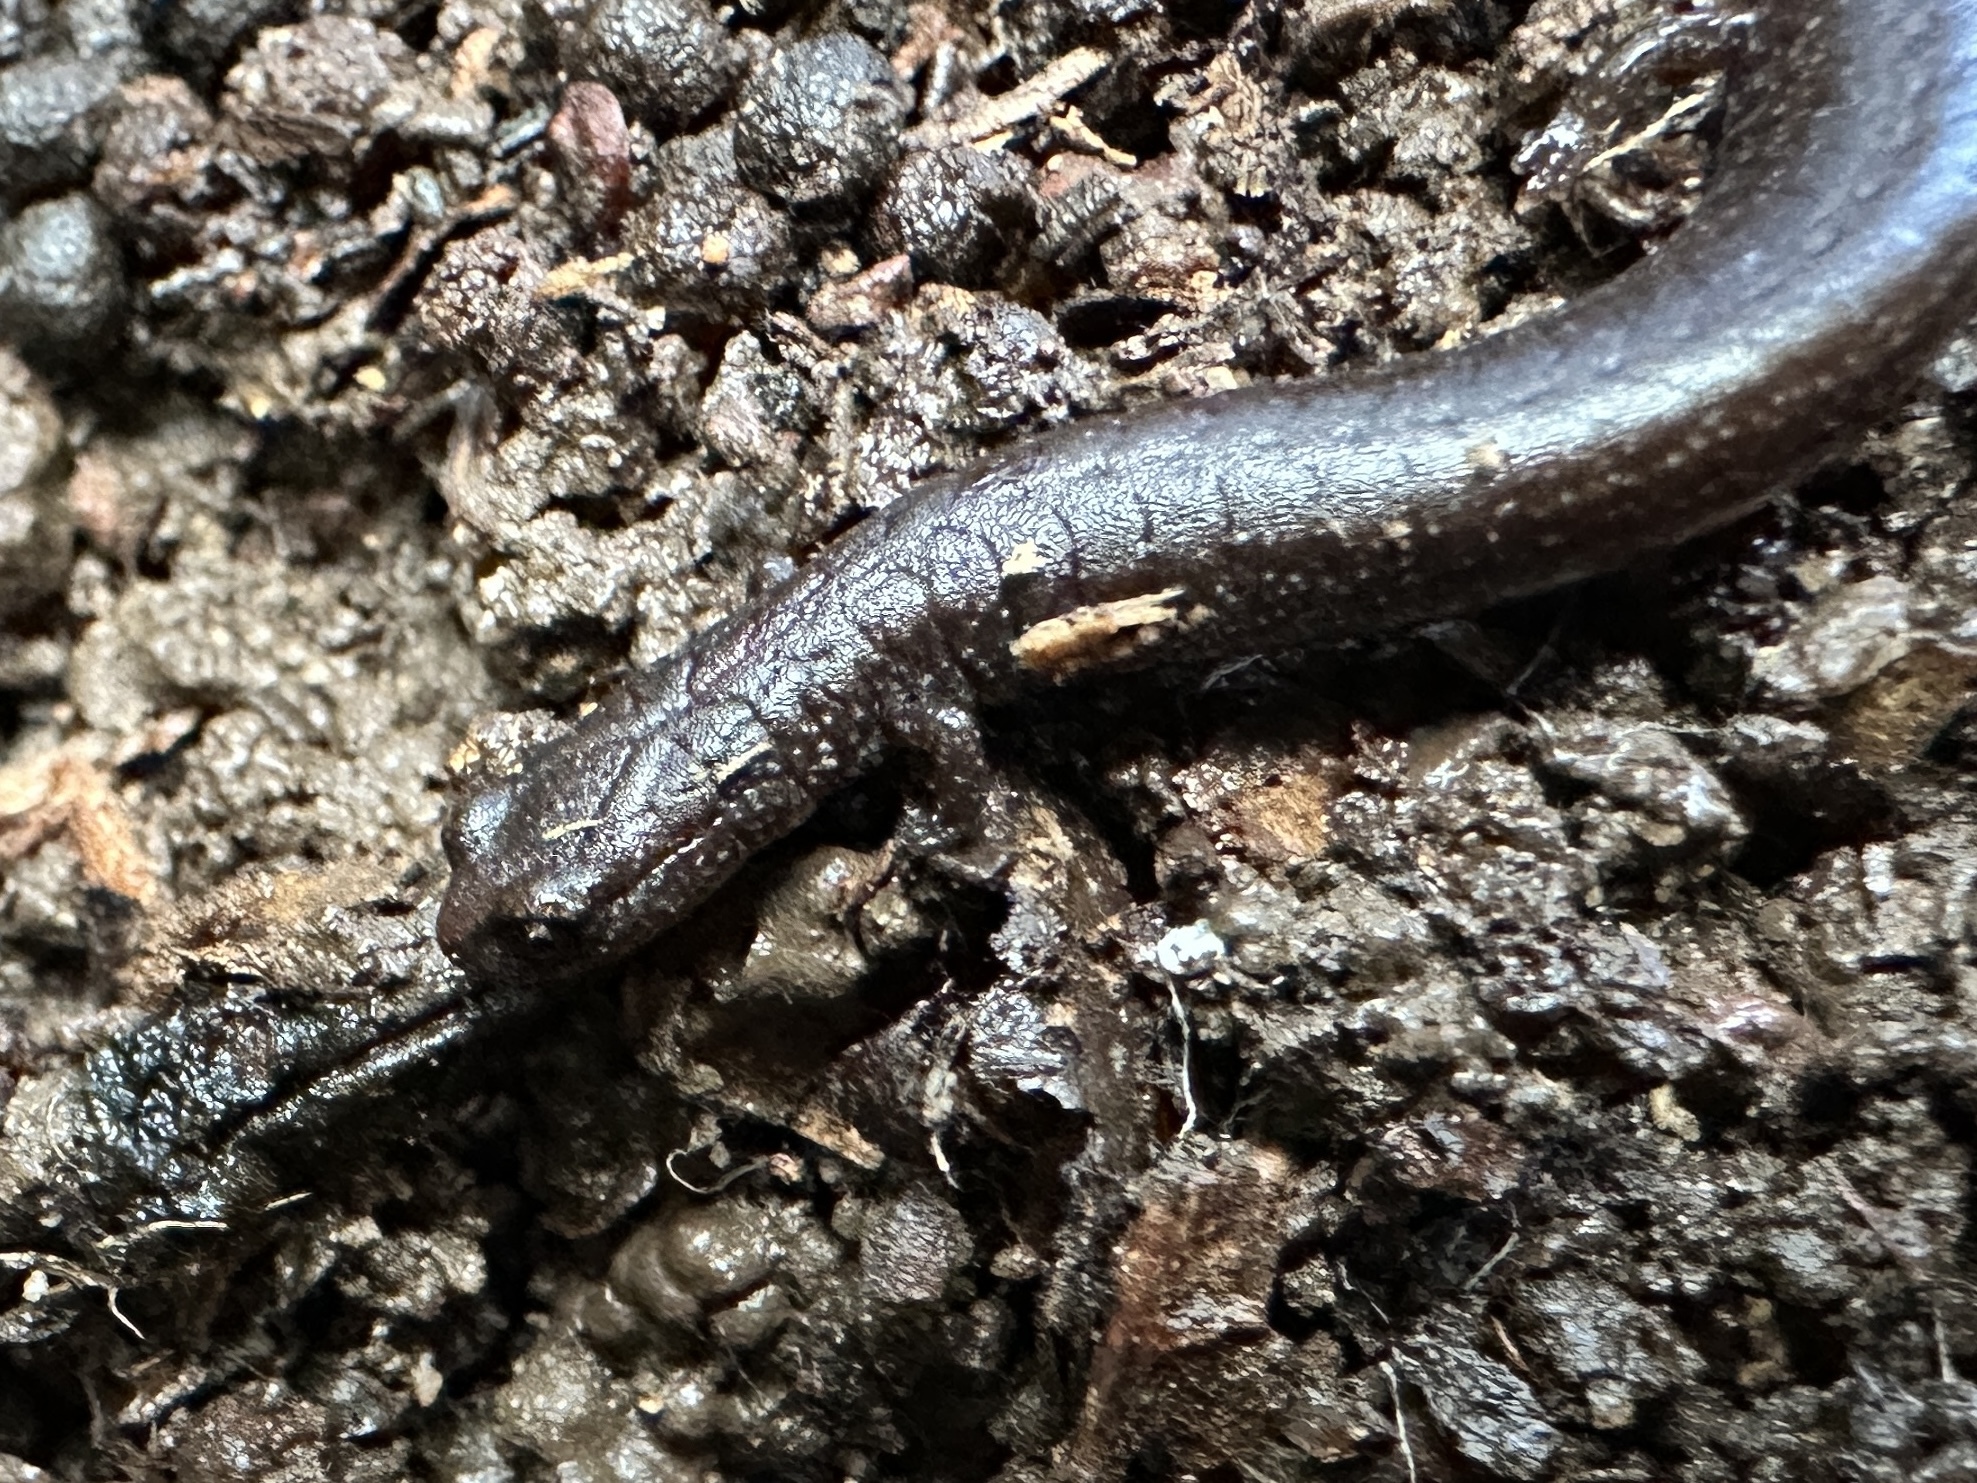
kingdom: Animalia
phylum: Chordata
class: Amphibia
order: Caudata
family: Plethodontidae
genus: Batrachoseps
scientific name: Batrachoseps attenuatus
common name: California slender salamander
